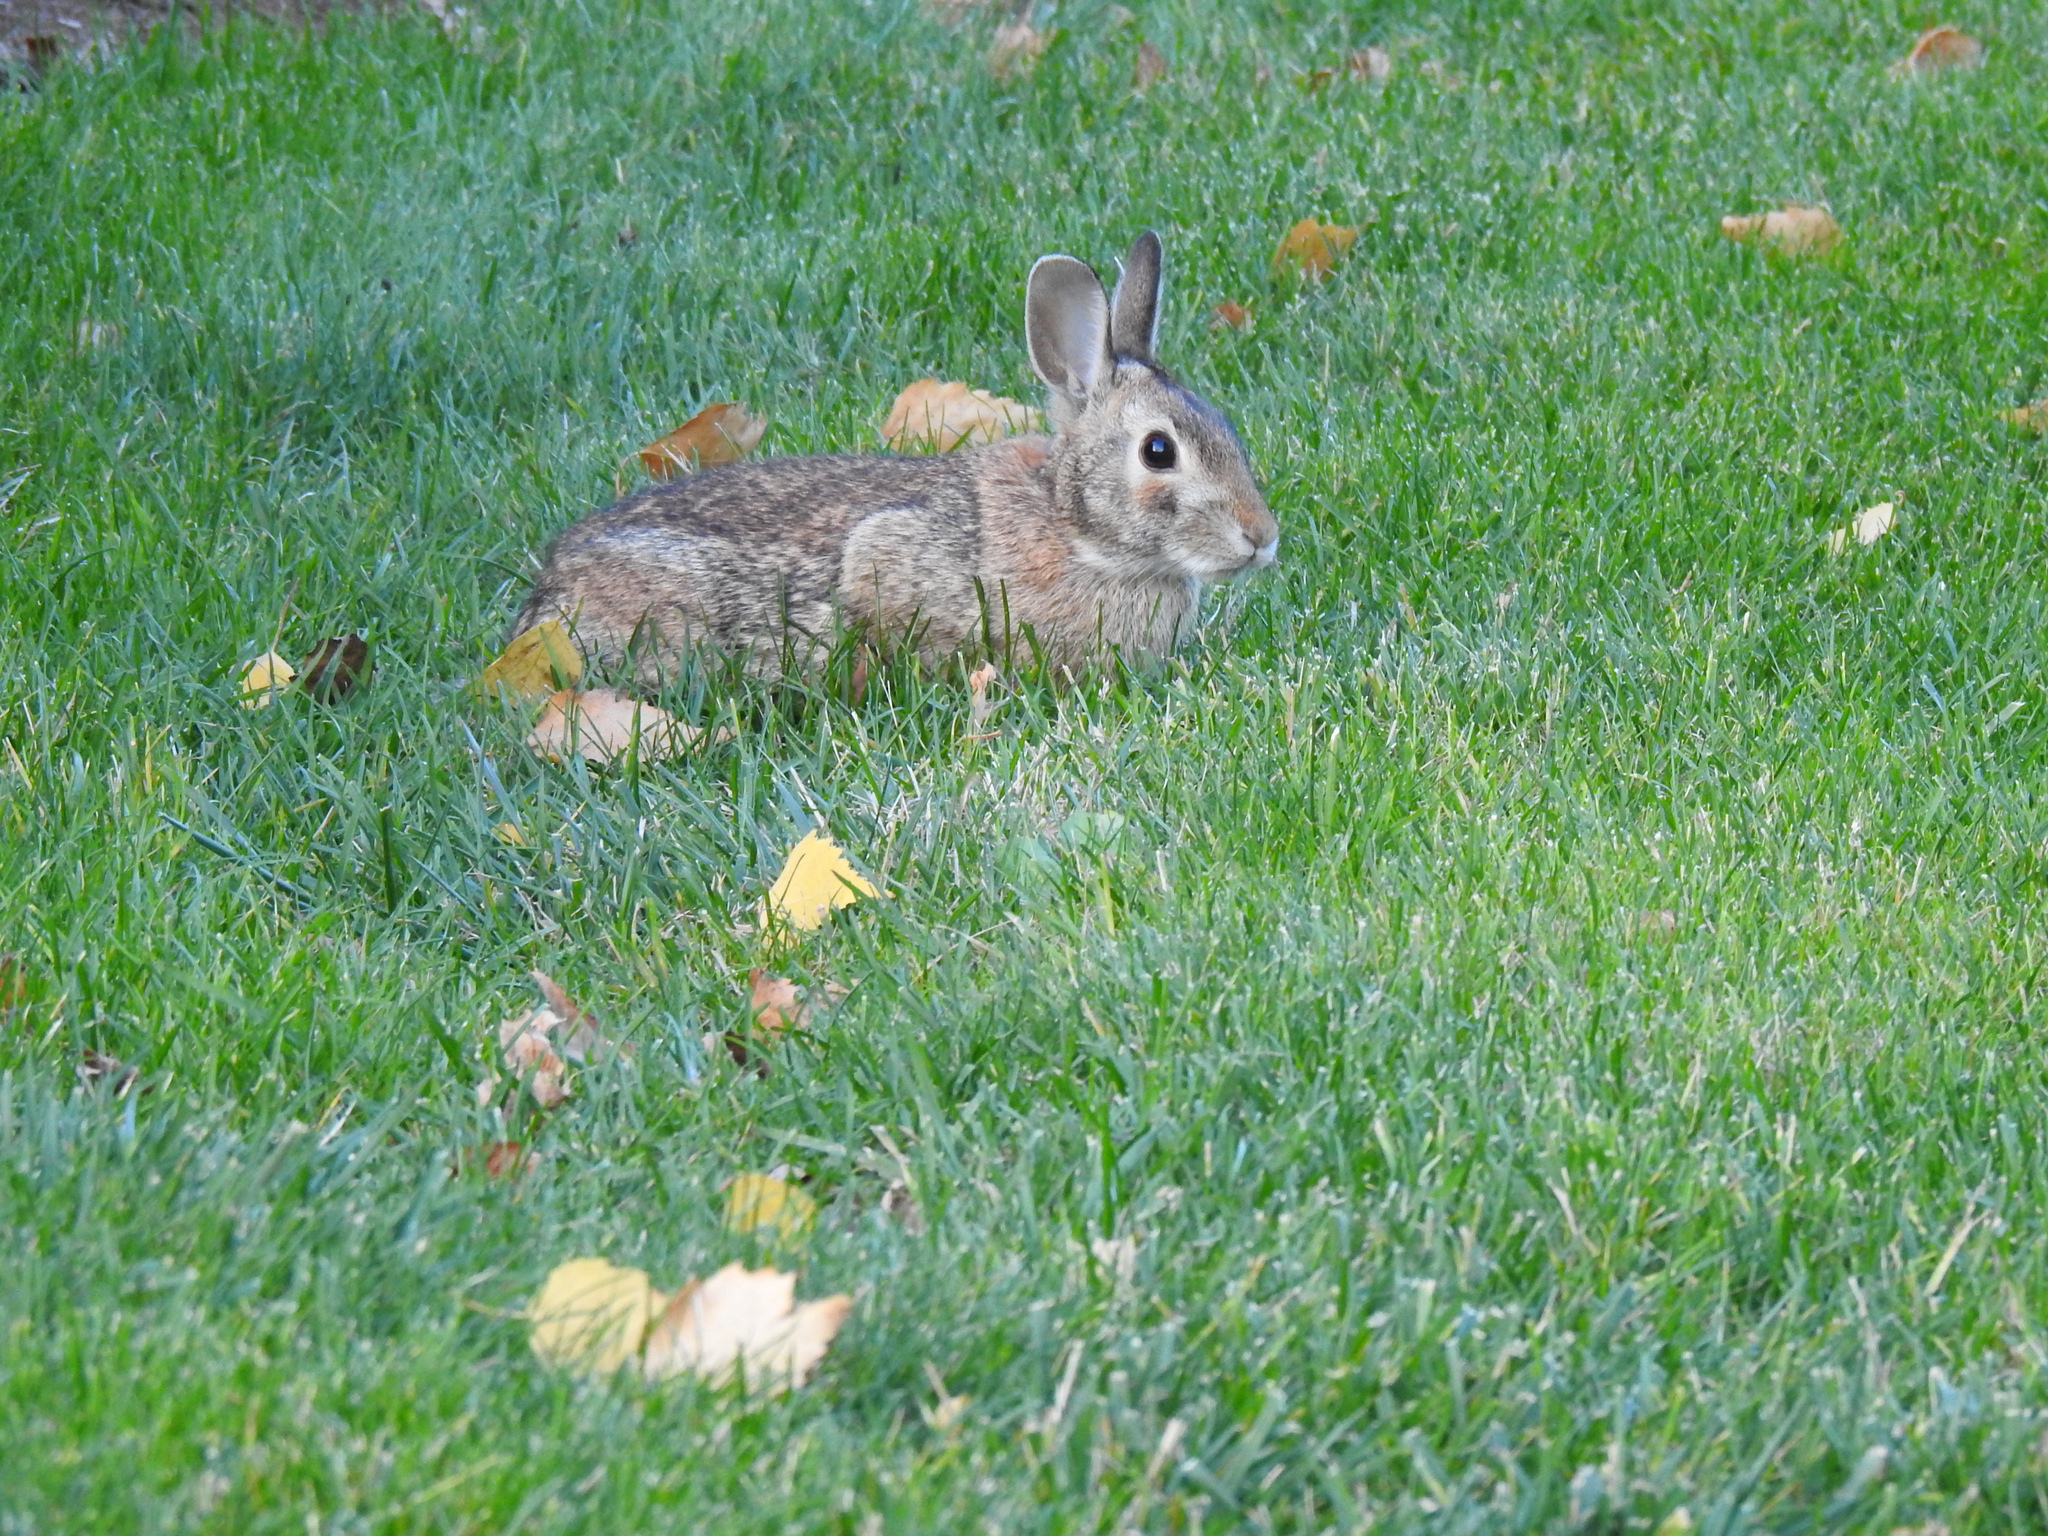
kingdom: Animalia
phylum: Chordata
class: Mammalia
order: Lagomorpha
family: Leporidae
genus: Sylvilagus
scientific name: Sylvilagus floridanus
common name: Eastern cottontail
